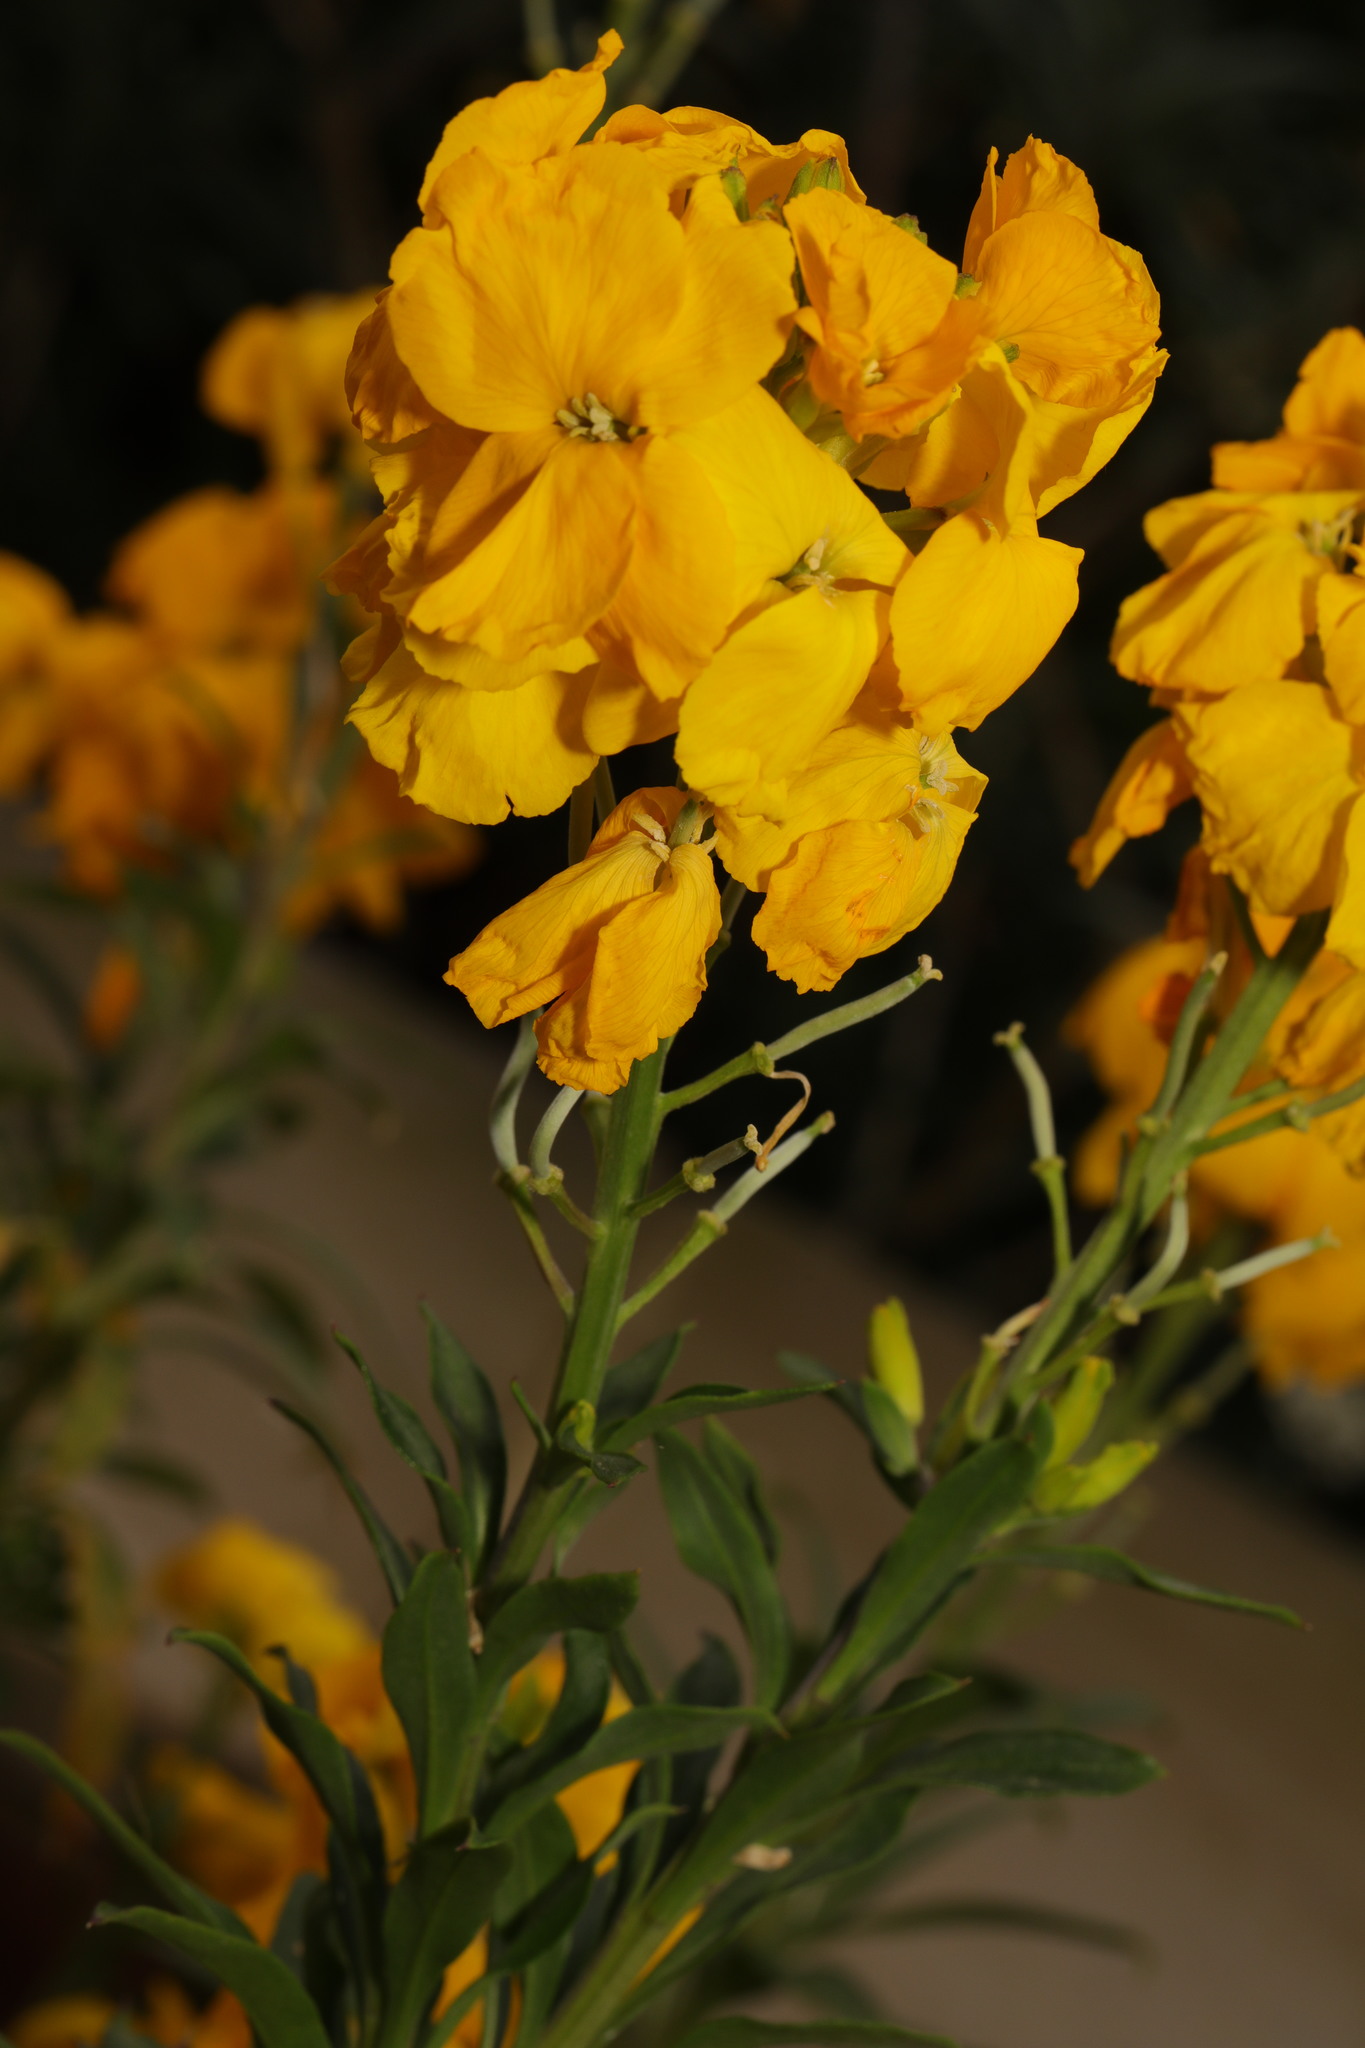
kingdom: Plantae
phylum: Tracheophyta
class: Magnoliopsida
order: Brassicales
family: Brassicaceae
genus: Erysimum
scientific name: Erysimum cheiri
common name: Wallflower
